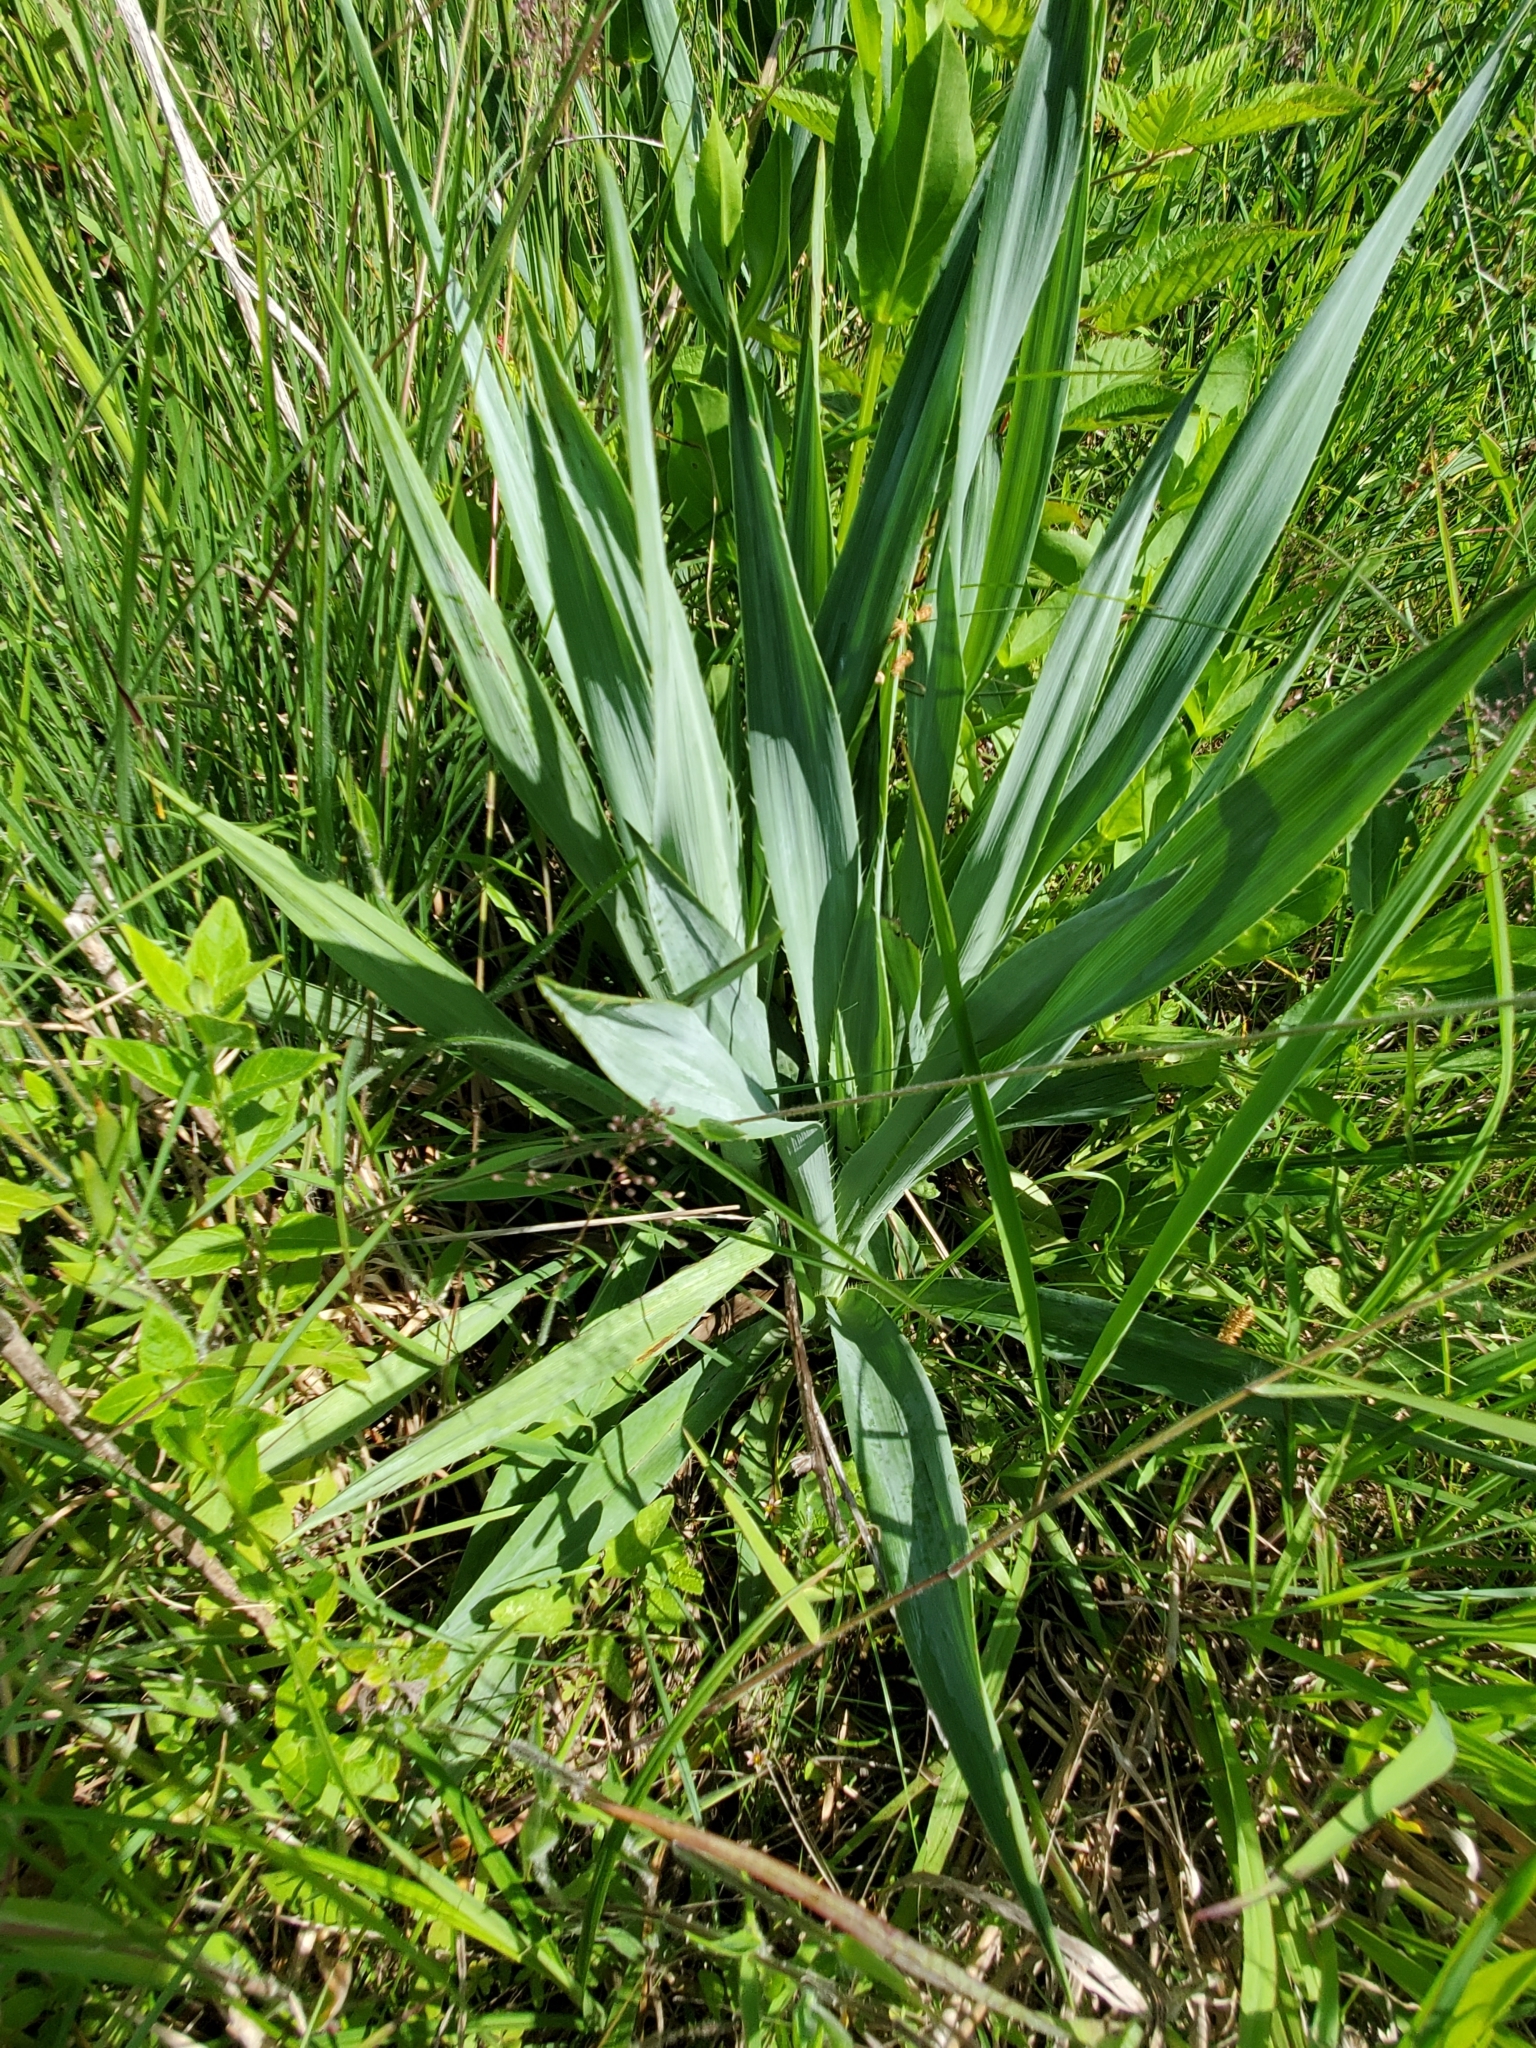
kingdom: Plantae
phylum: Tracheophyta
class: Magnoliopsida
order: Apiales
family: Apiaceae
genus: Eryngium
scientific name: Eryngium yuccifolium
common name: Button eryngo
